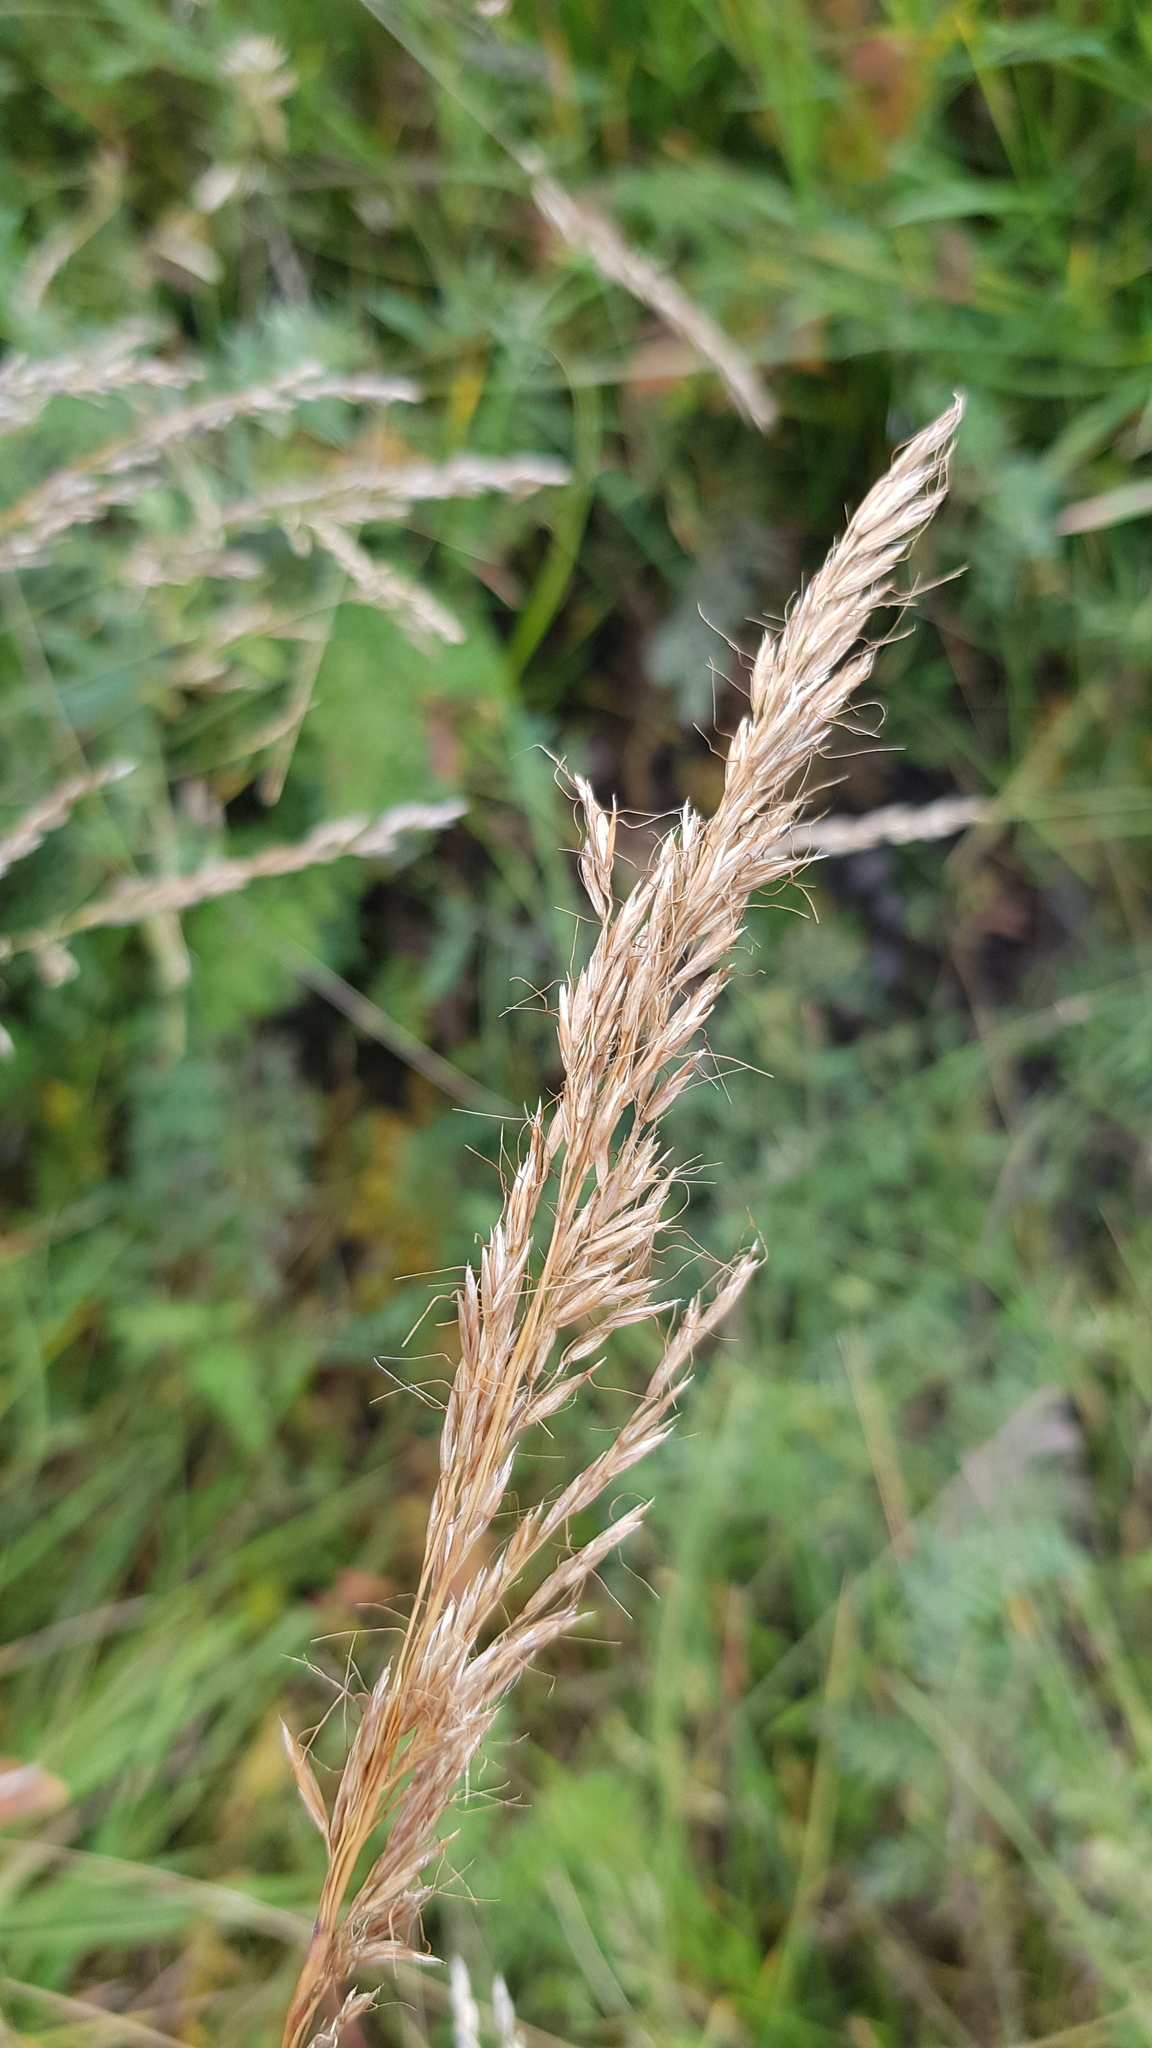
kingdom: Plantae
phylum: Tracheophyta
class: Liliopsida
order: Poales
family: Poaceae
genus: Achnatherum
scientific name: Achnatherum sibiricum
